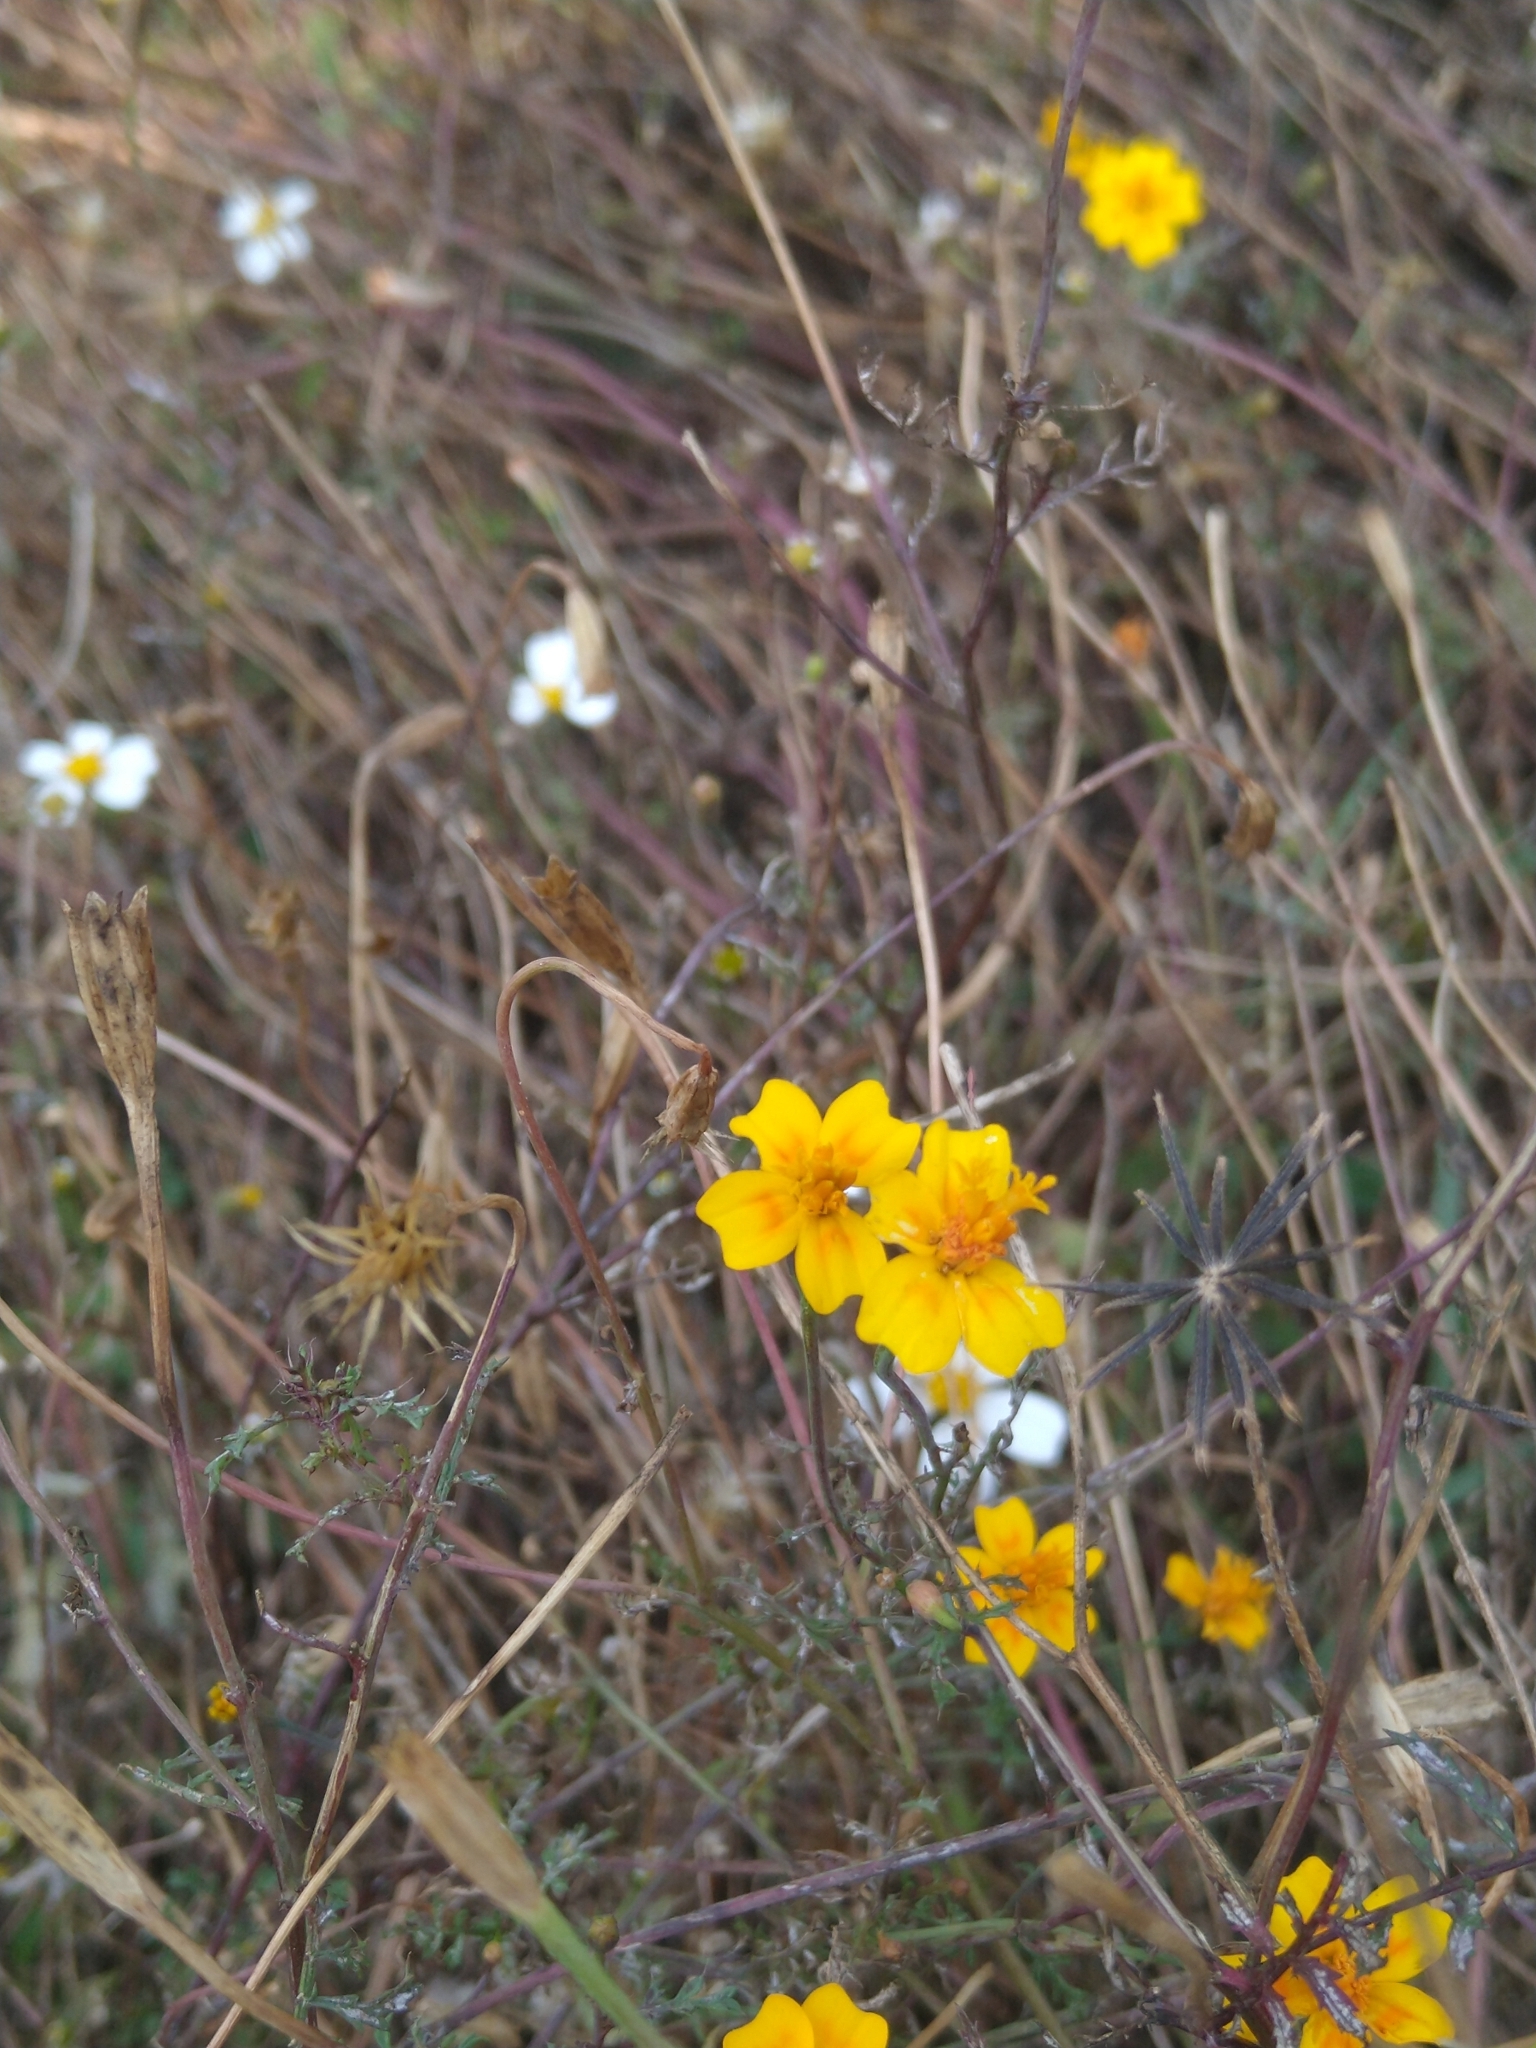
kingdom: Plantae
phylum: Tracheophyta
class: Magnoliopsida
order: Asterales
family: Asteraceae
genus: Tagetes
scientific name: Tagetes lunulata
